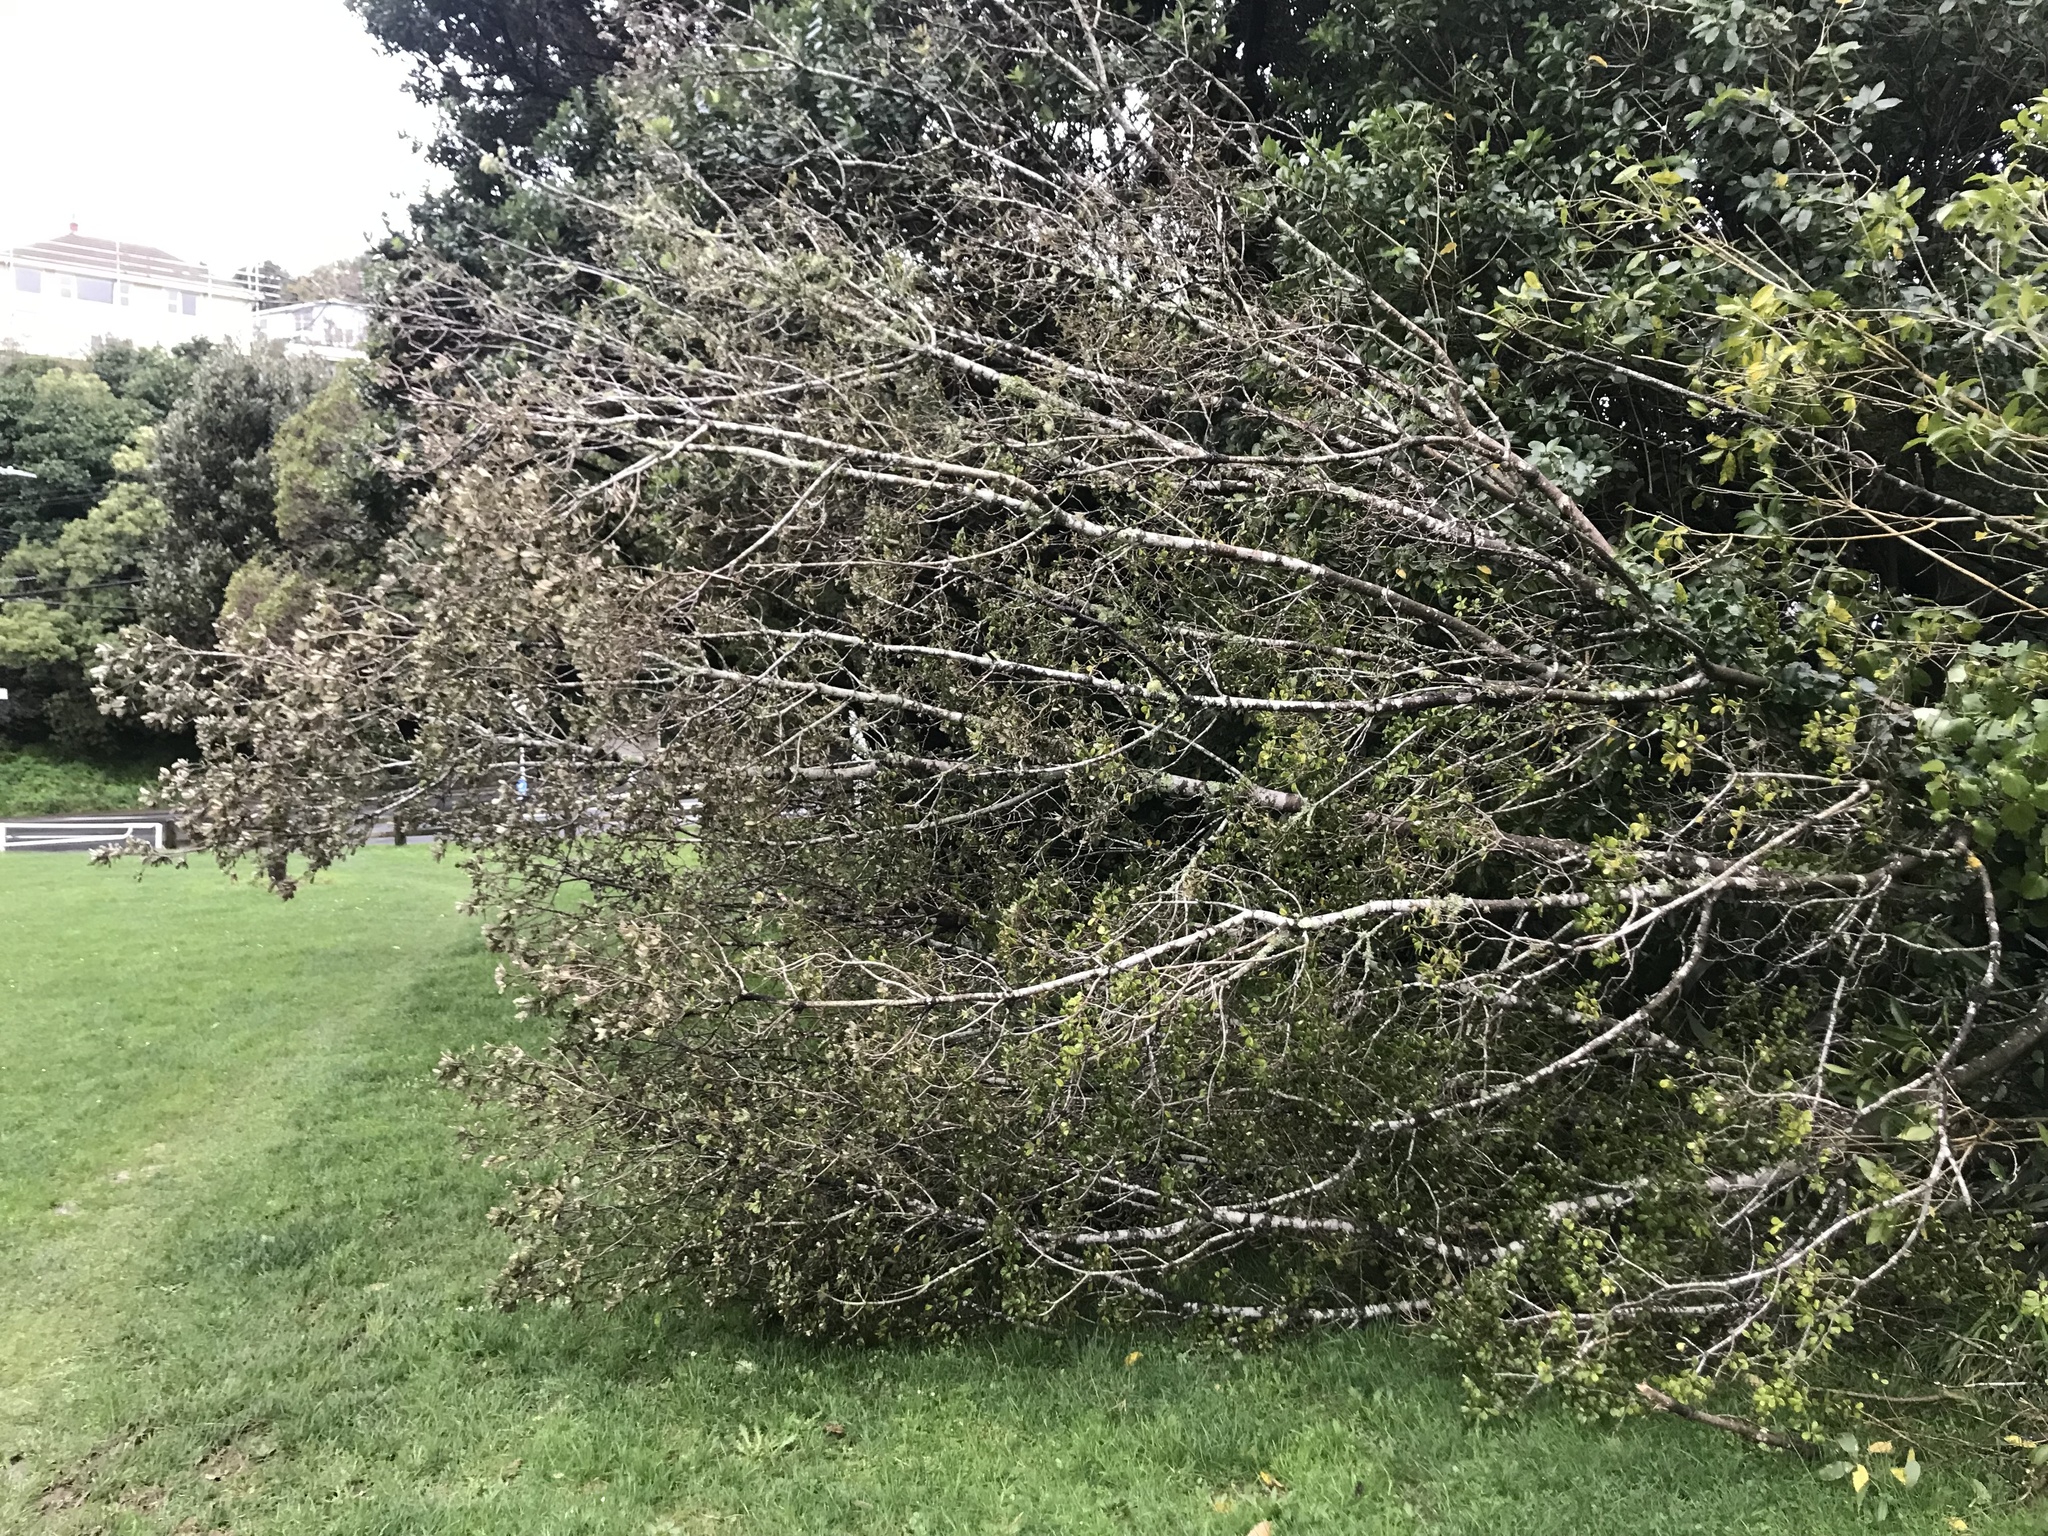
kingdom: Plantae
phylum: Tracheophyta
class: Magnoliopsida
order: Apiales
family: Pittosporaceae
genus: Pittosporum
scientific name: Pittosporum crassifolium
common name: Karo
